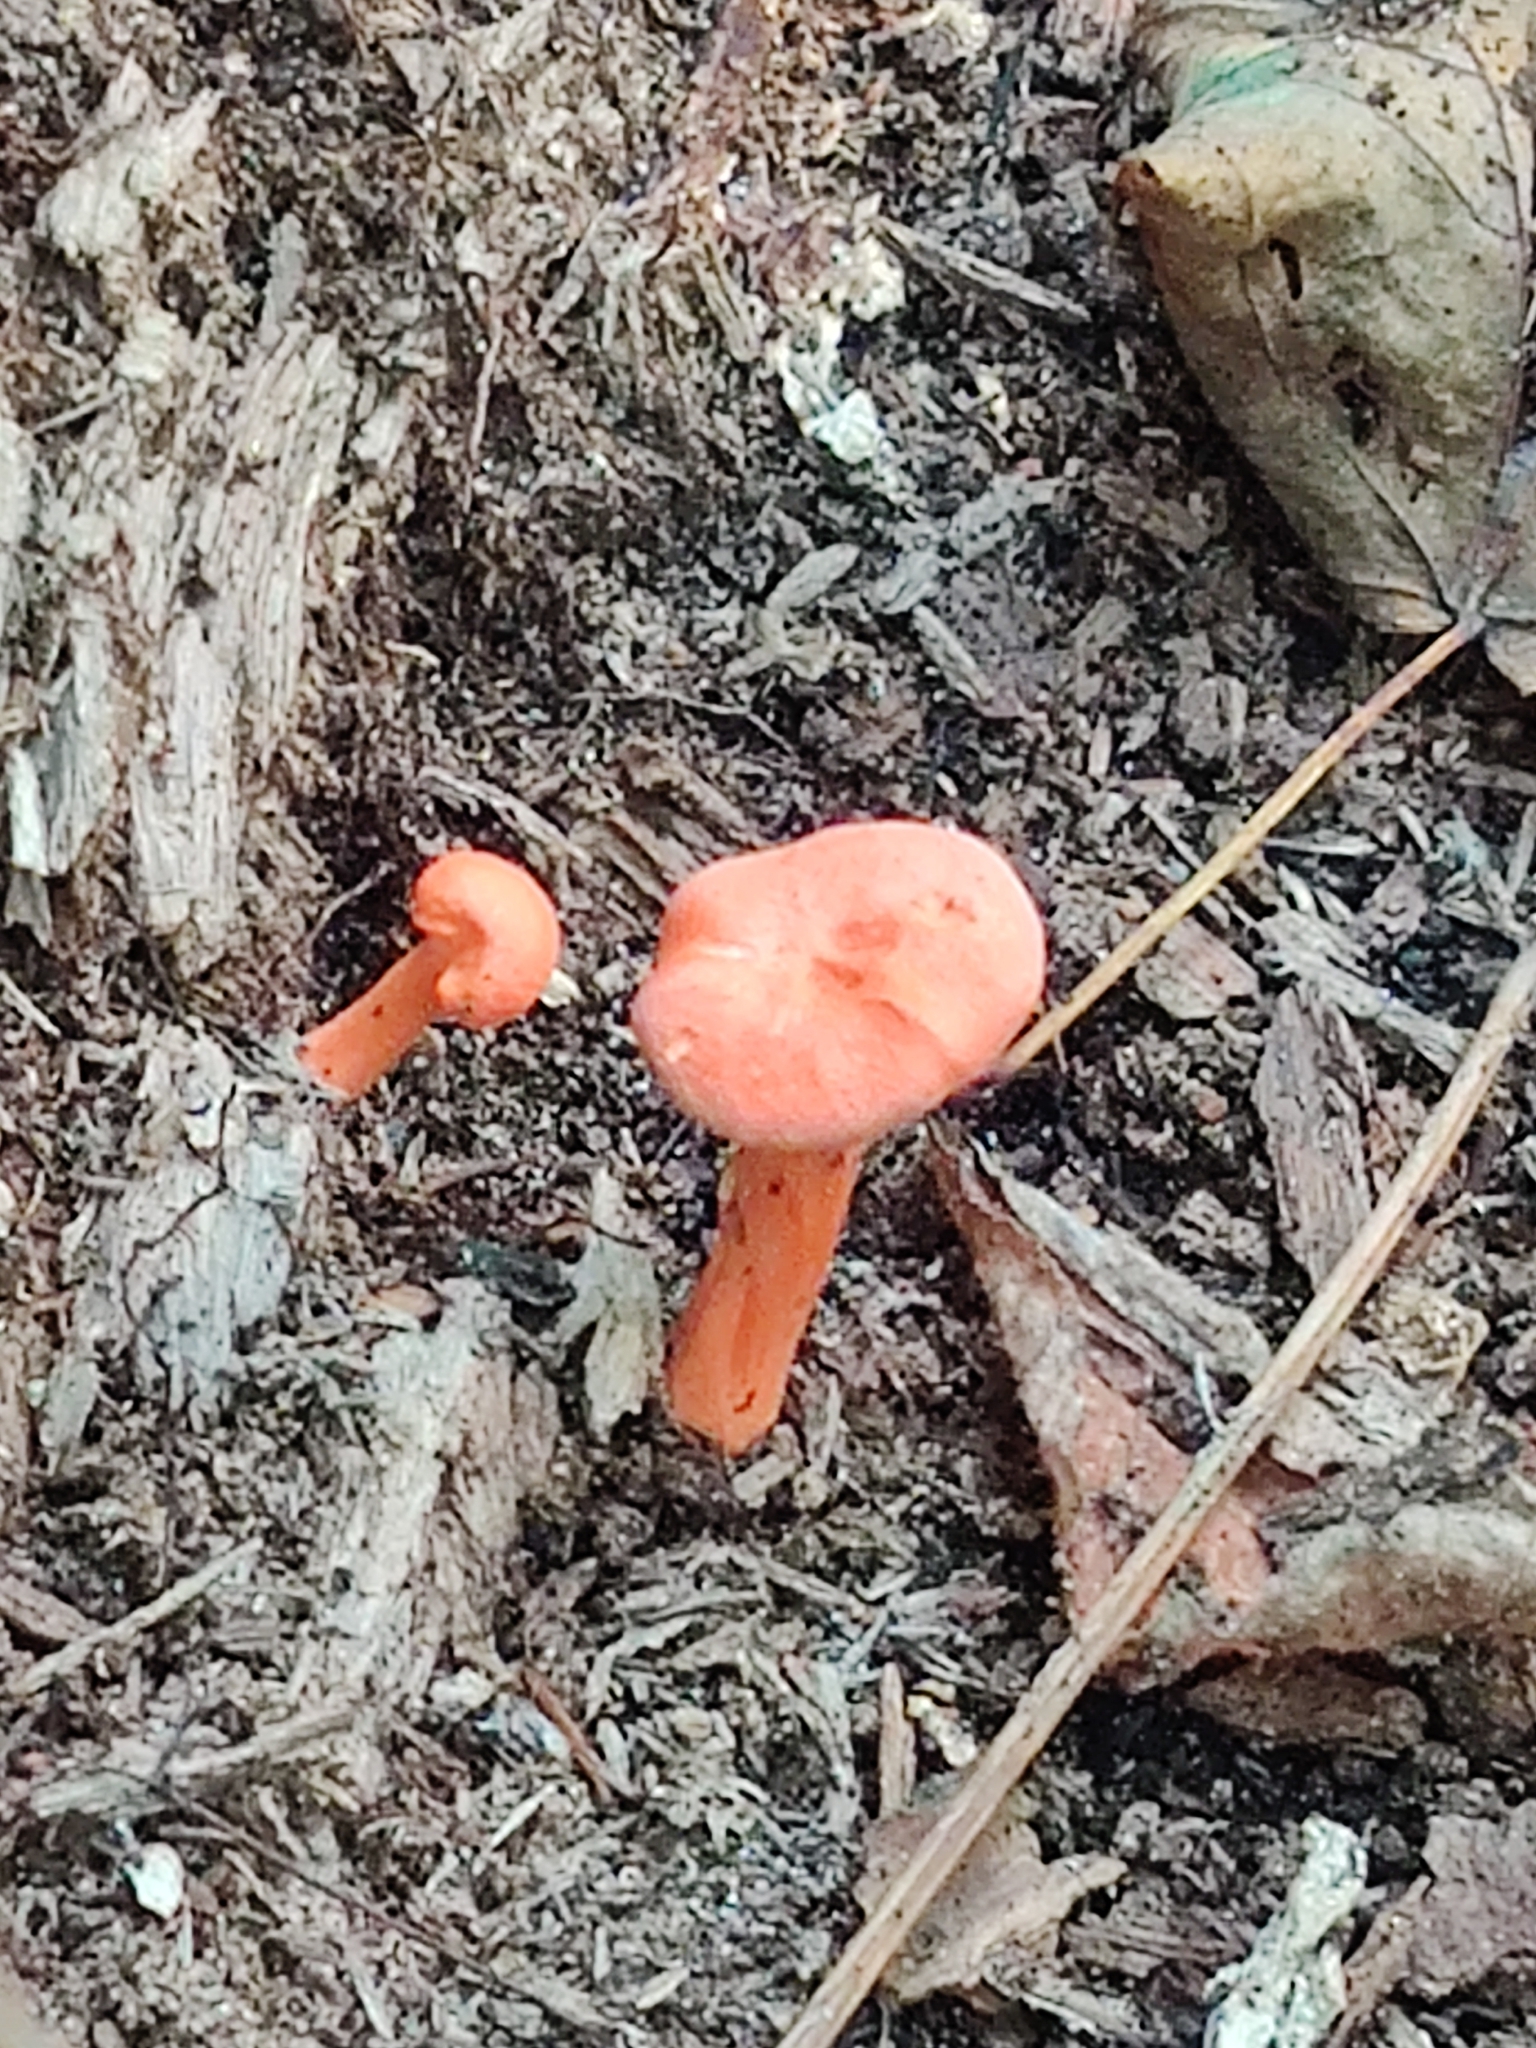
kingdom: Fungi
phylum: Basidiomycota
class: Agaricomycetes
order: Cantharellales
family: Hydnaceae
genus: Cantharellus
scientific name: Cantharellus cinnabarinus
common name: Cinnabar chanterelle
